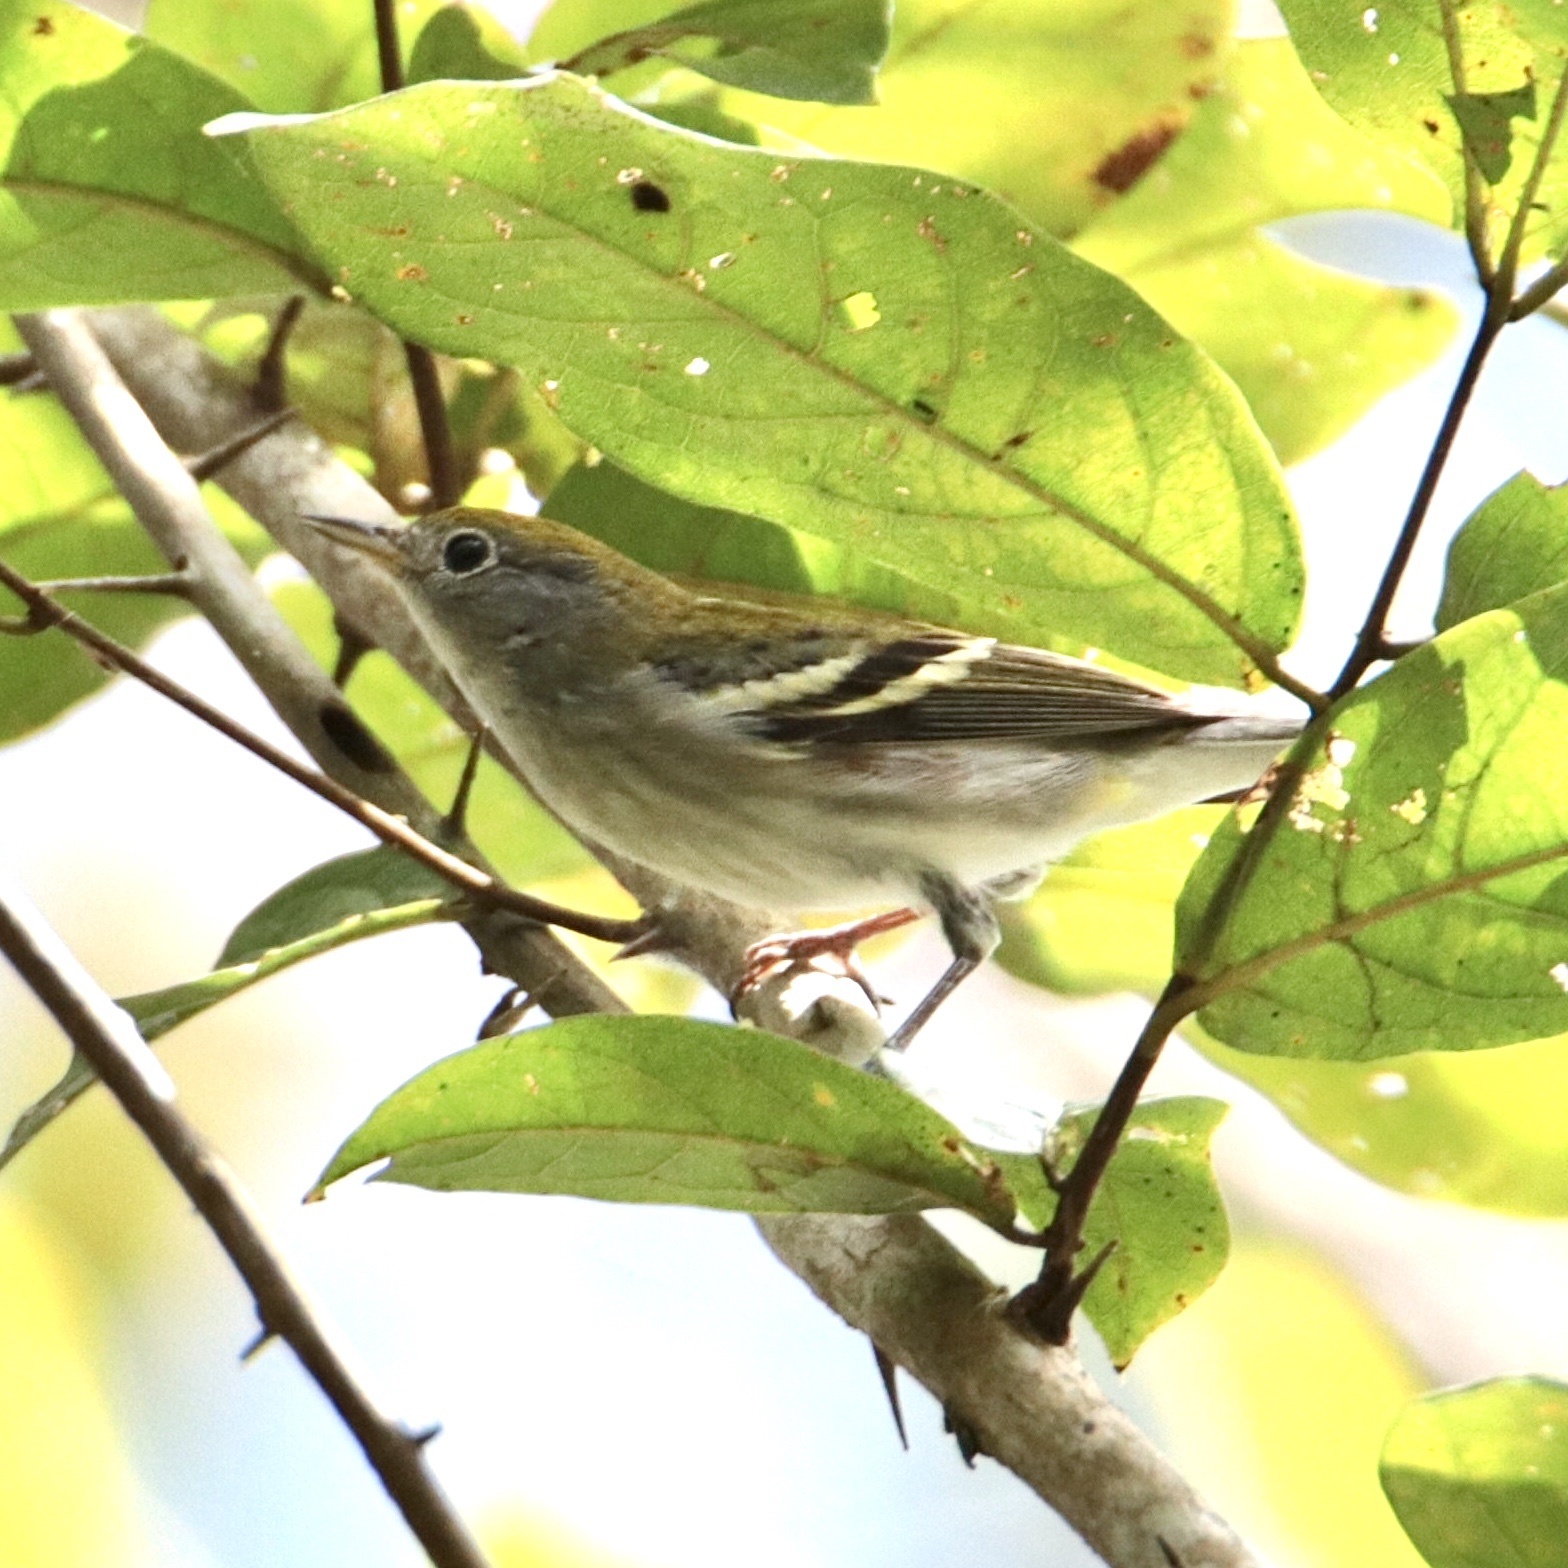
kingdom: Animalia
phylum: Chordata
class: Aves
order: Passeriformes
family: Parulidae
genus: Setophaga
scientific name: Setophaga castanea
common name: Bay-breasted warbler
